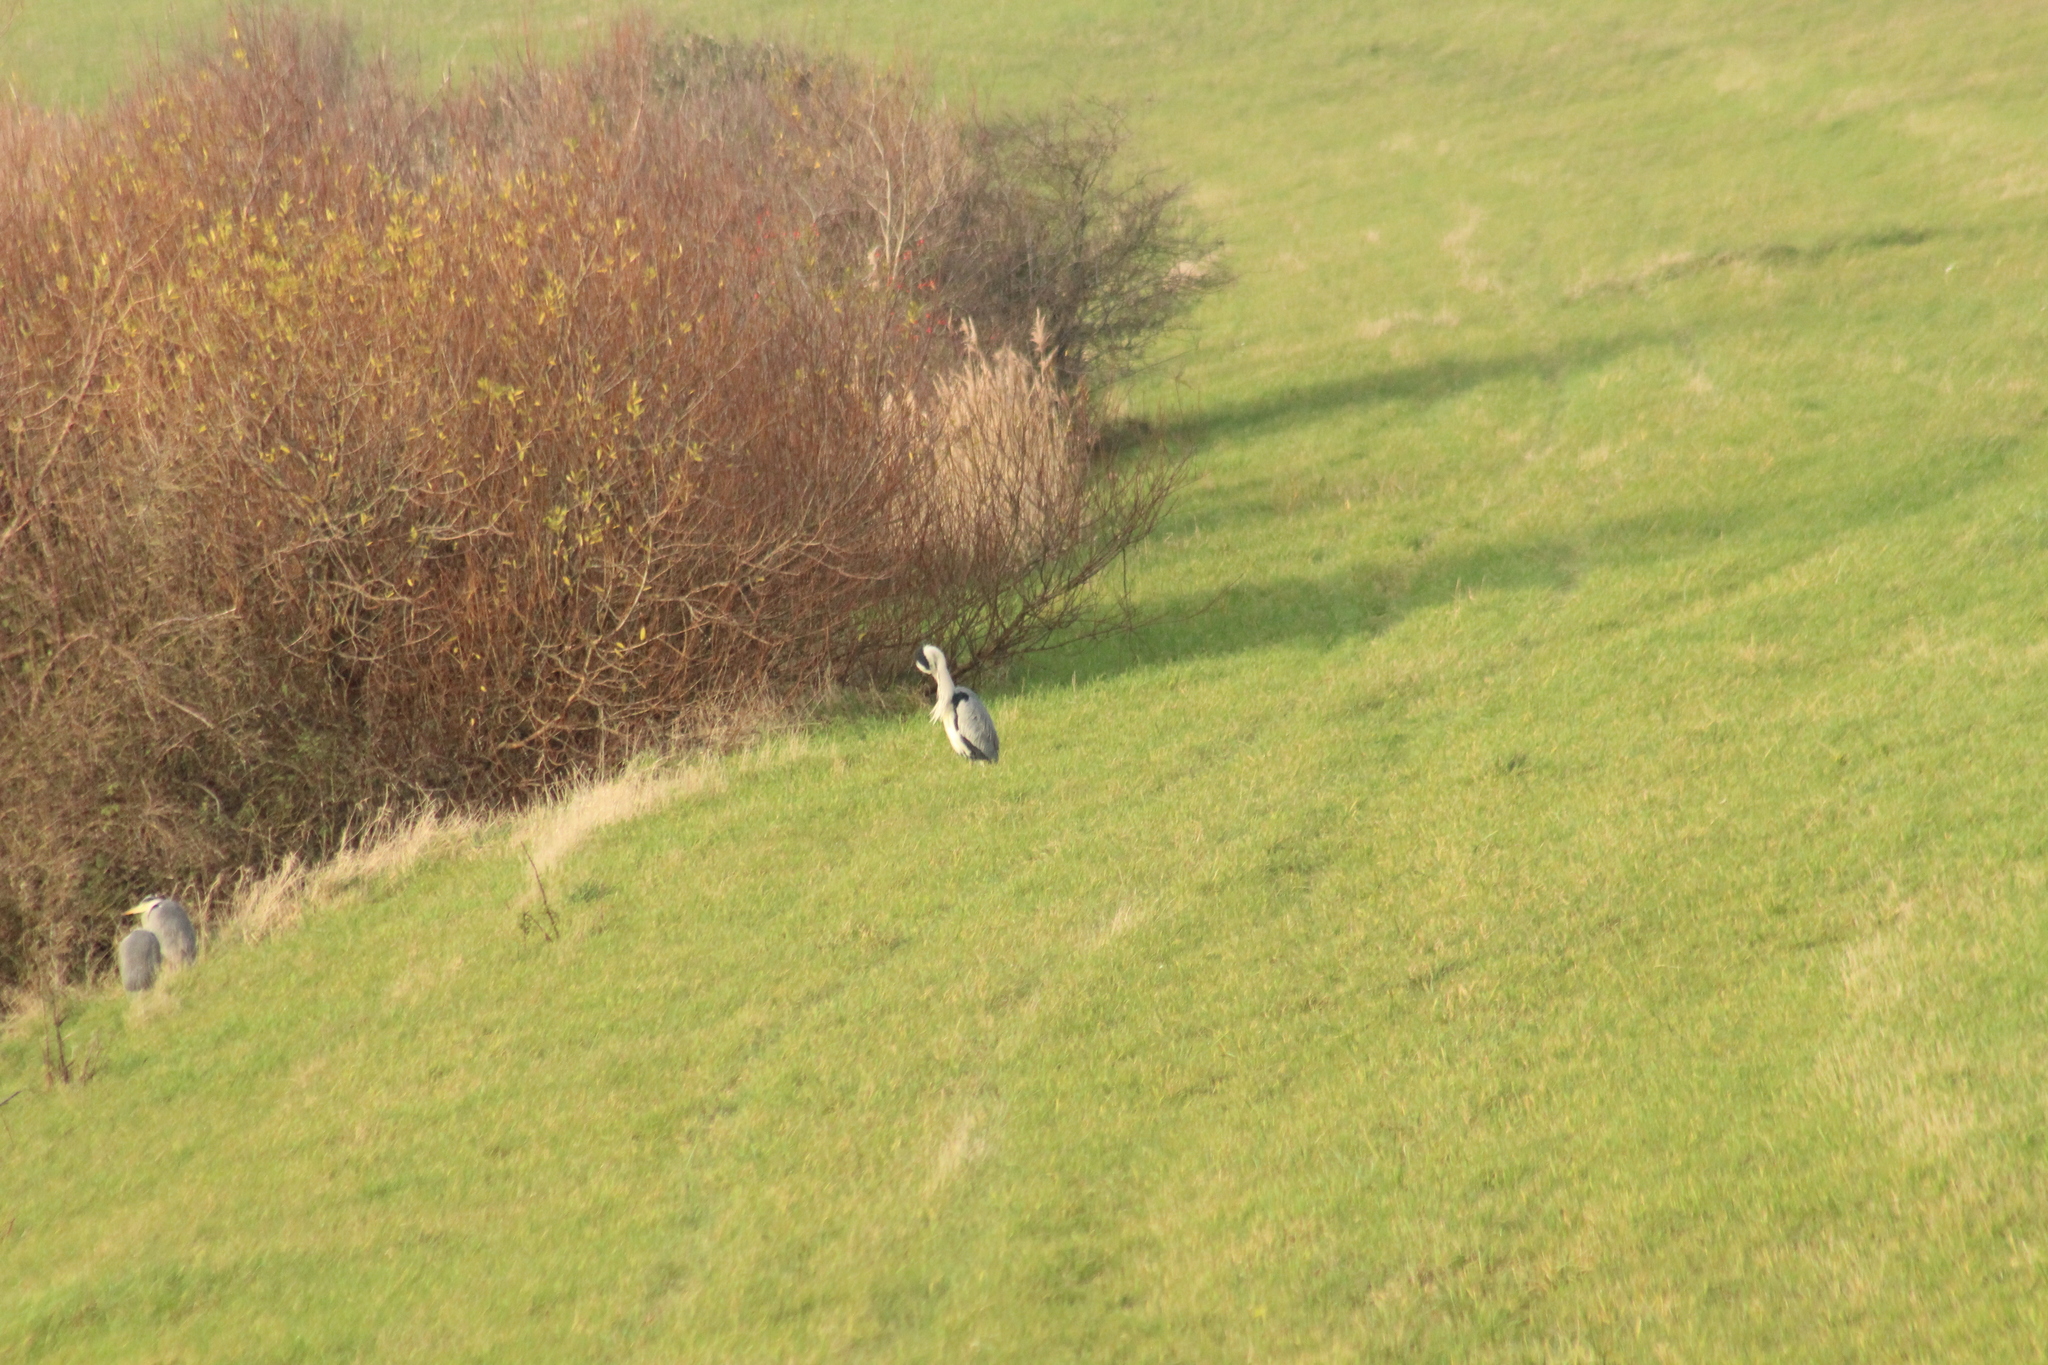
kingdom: Animalia
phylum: Chordata
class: Aves
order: Pelecaniformes
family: Ardeidae
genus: Ardea
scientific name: Ardea cinerea
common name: Grey heron
